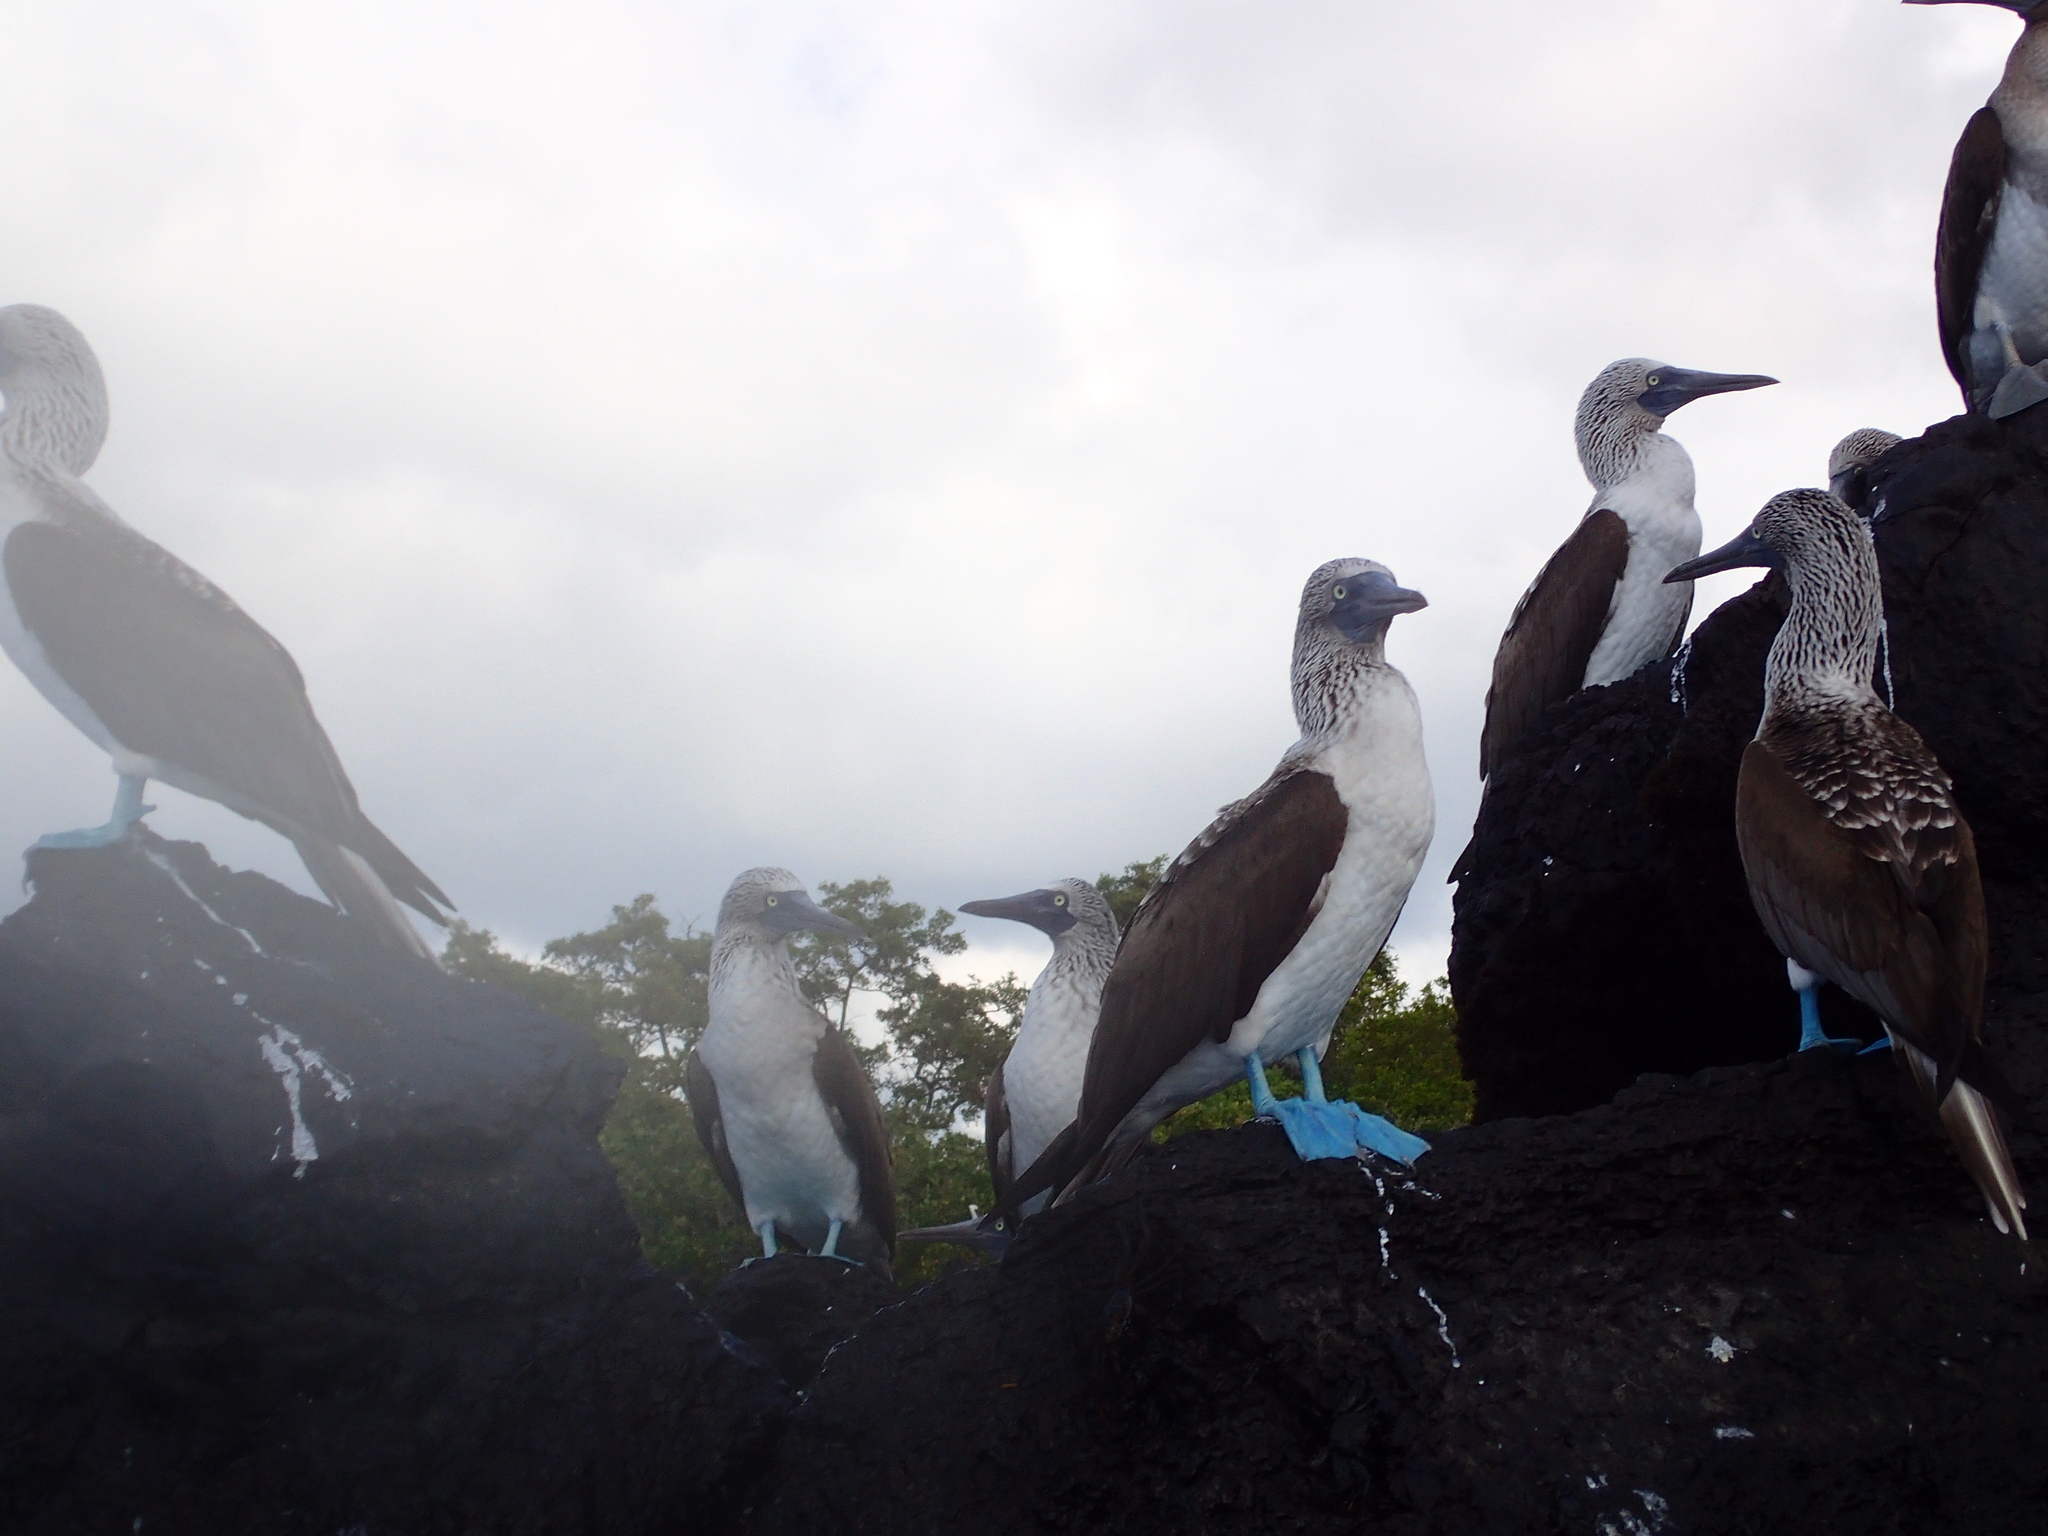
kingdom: Animalia
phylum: Chordata
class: Aves
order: Suliformes
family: Sulidae
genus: Sula
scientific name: Sula nebouxii
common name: Blue-footed booby
